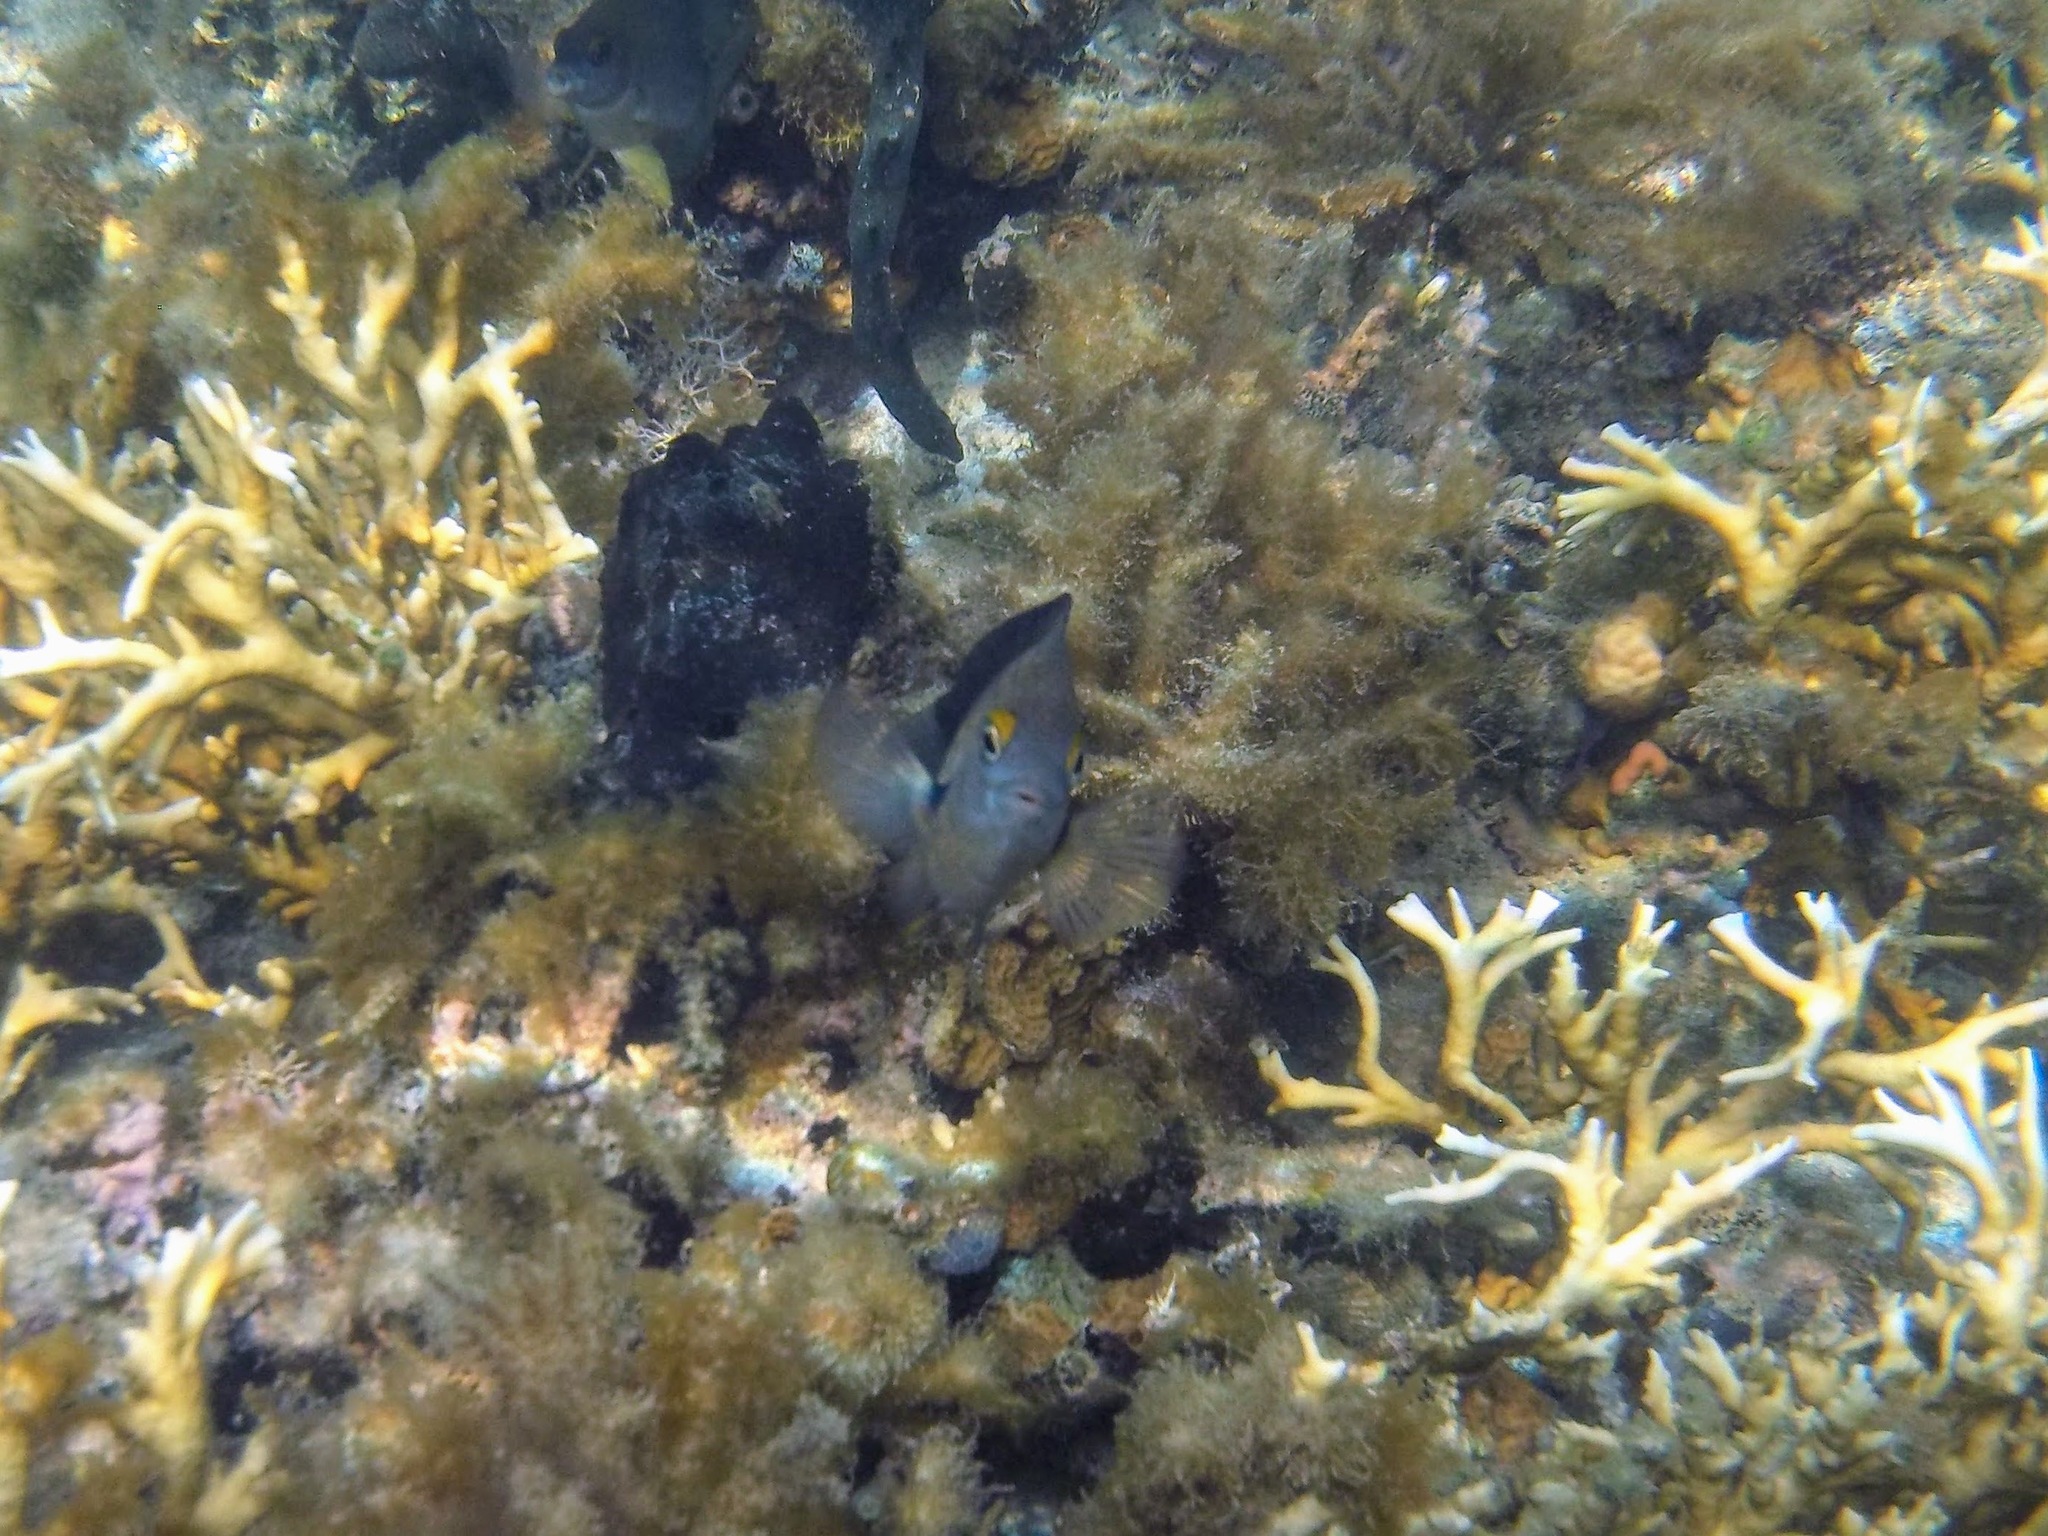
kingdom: Animalia
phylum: Chordata
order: Perciformes
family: Pomacentridae
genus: Stegastes
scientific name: Stegastes planifrons
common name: Threespot damselfish
